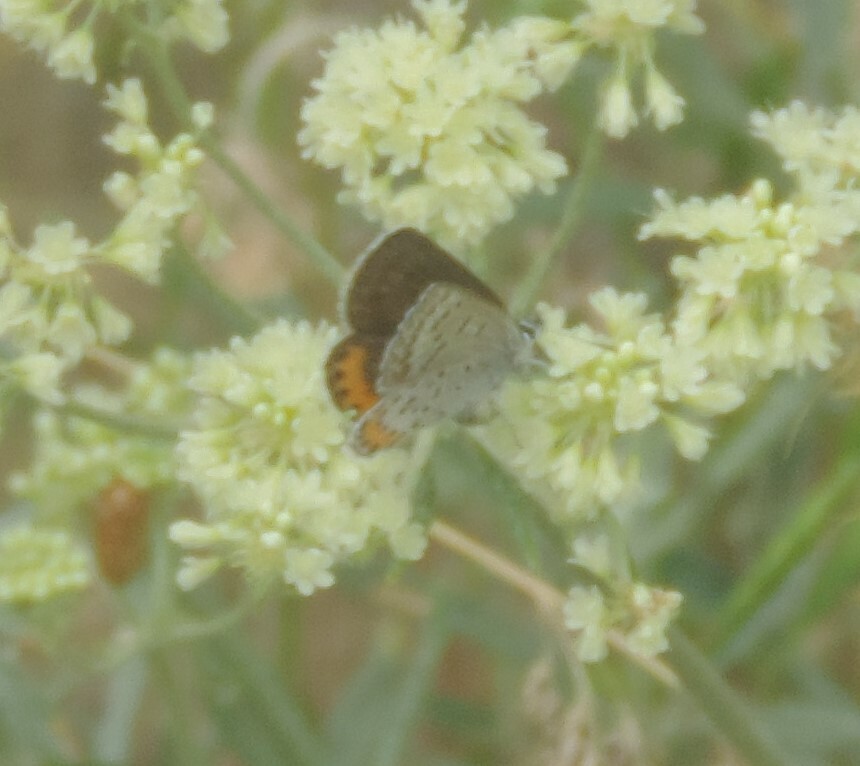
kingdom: Animalia
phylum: Arthropoda
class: Insecta
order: Lepidoptera
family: Lycaenidae
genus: Icaricia
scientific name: Icaricia lupini
